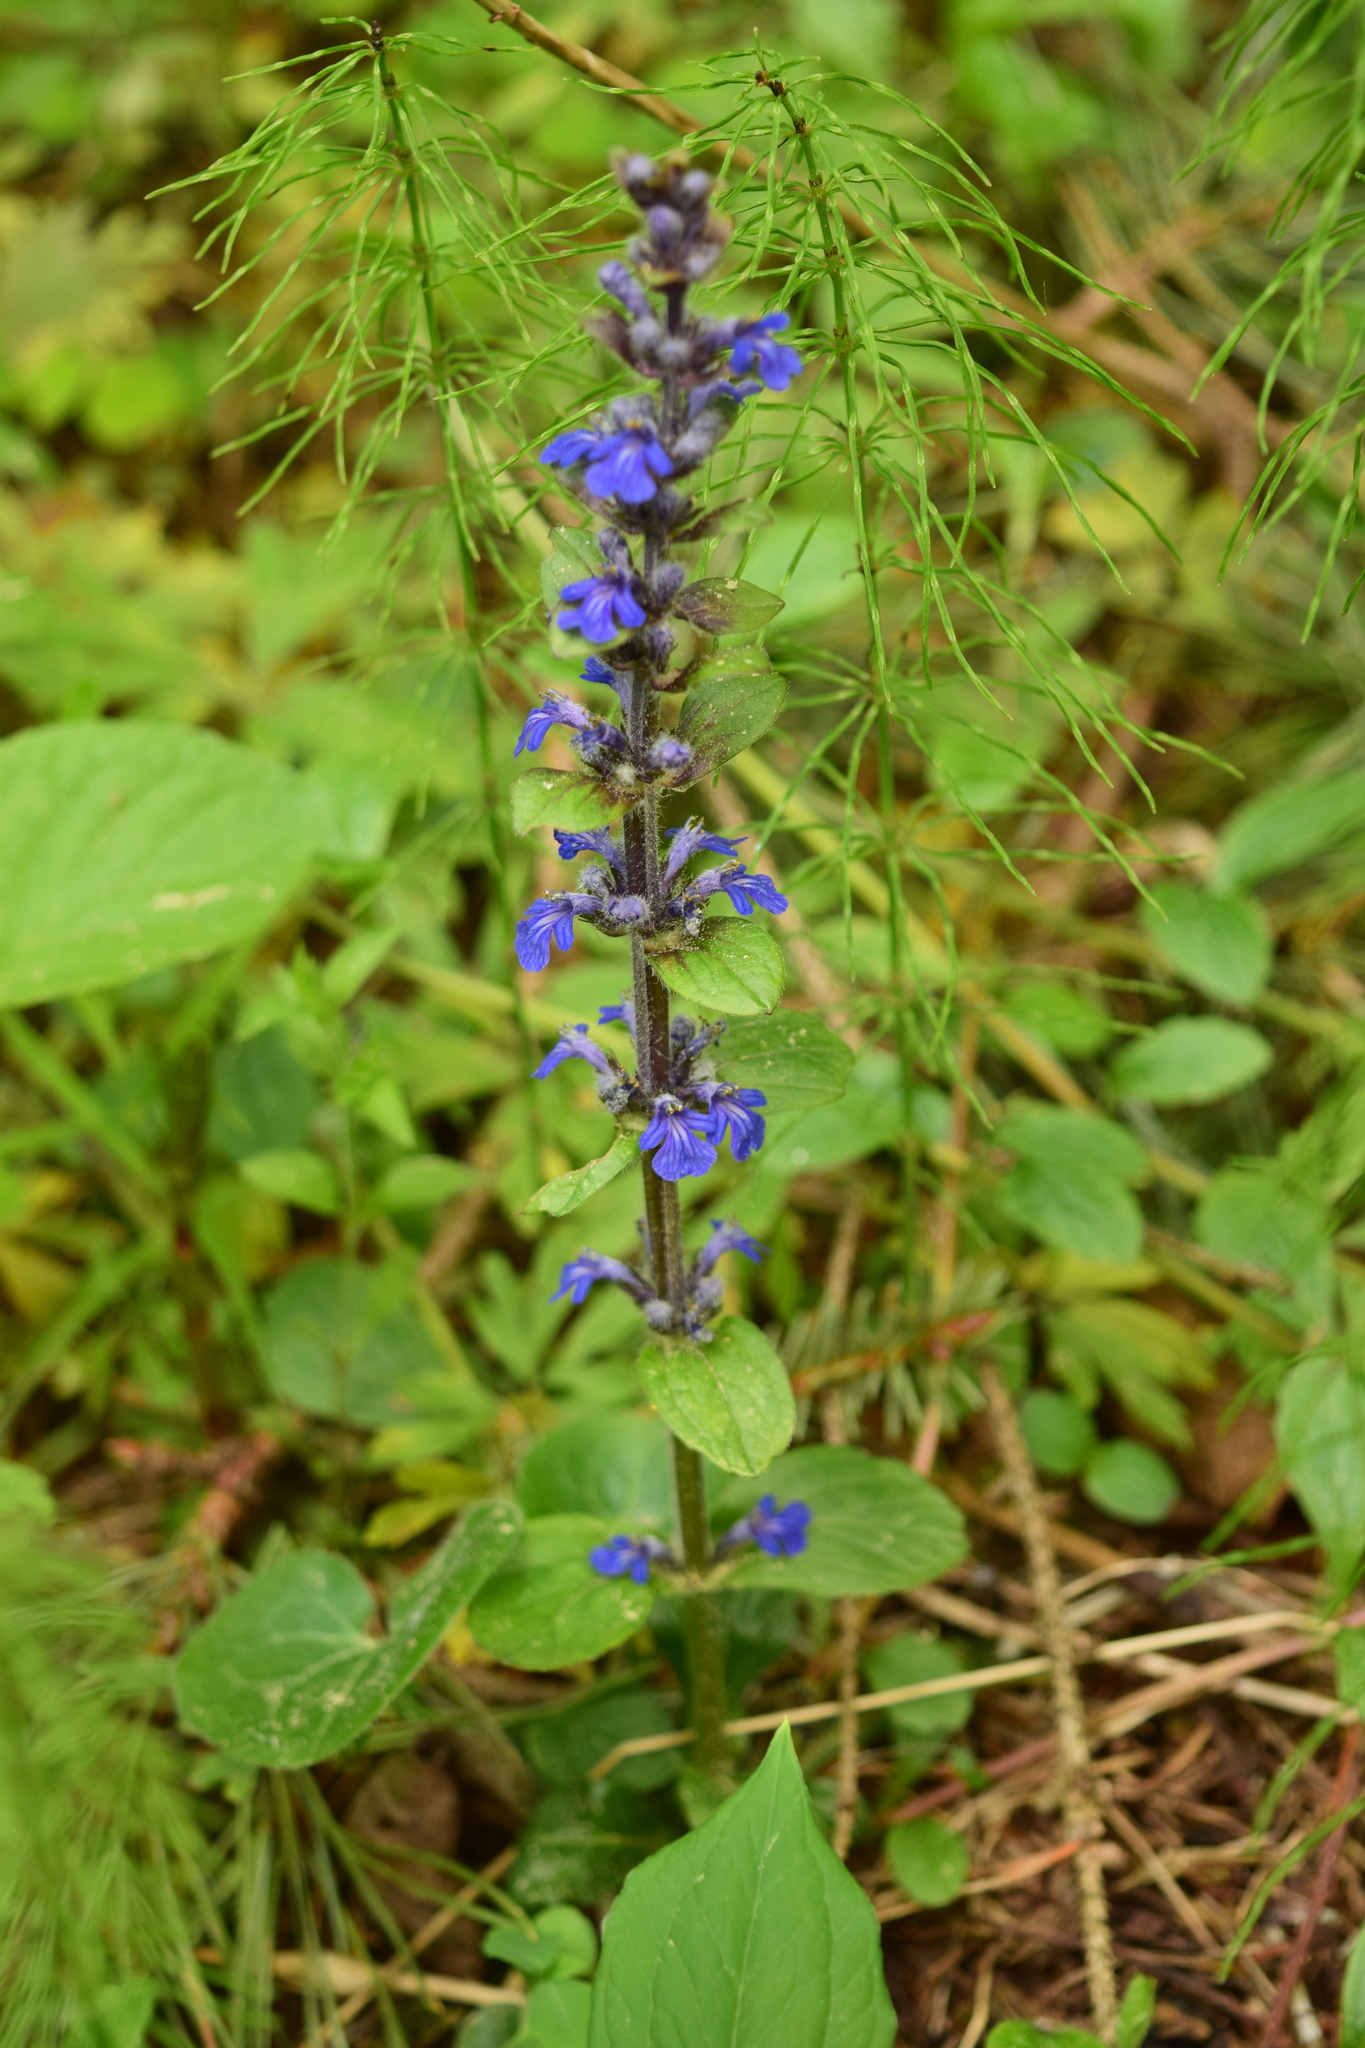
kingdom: Plantae
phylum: Tracheophyta
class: Magnoliopsida
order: Lamiales
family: Lamiaceae
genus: Ajuga
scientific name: Ajuga reptans
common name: Bugle
